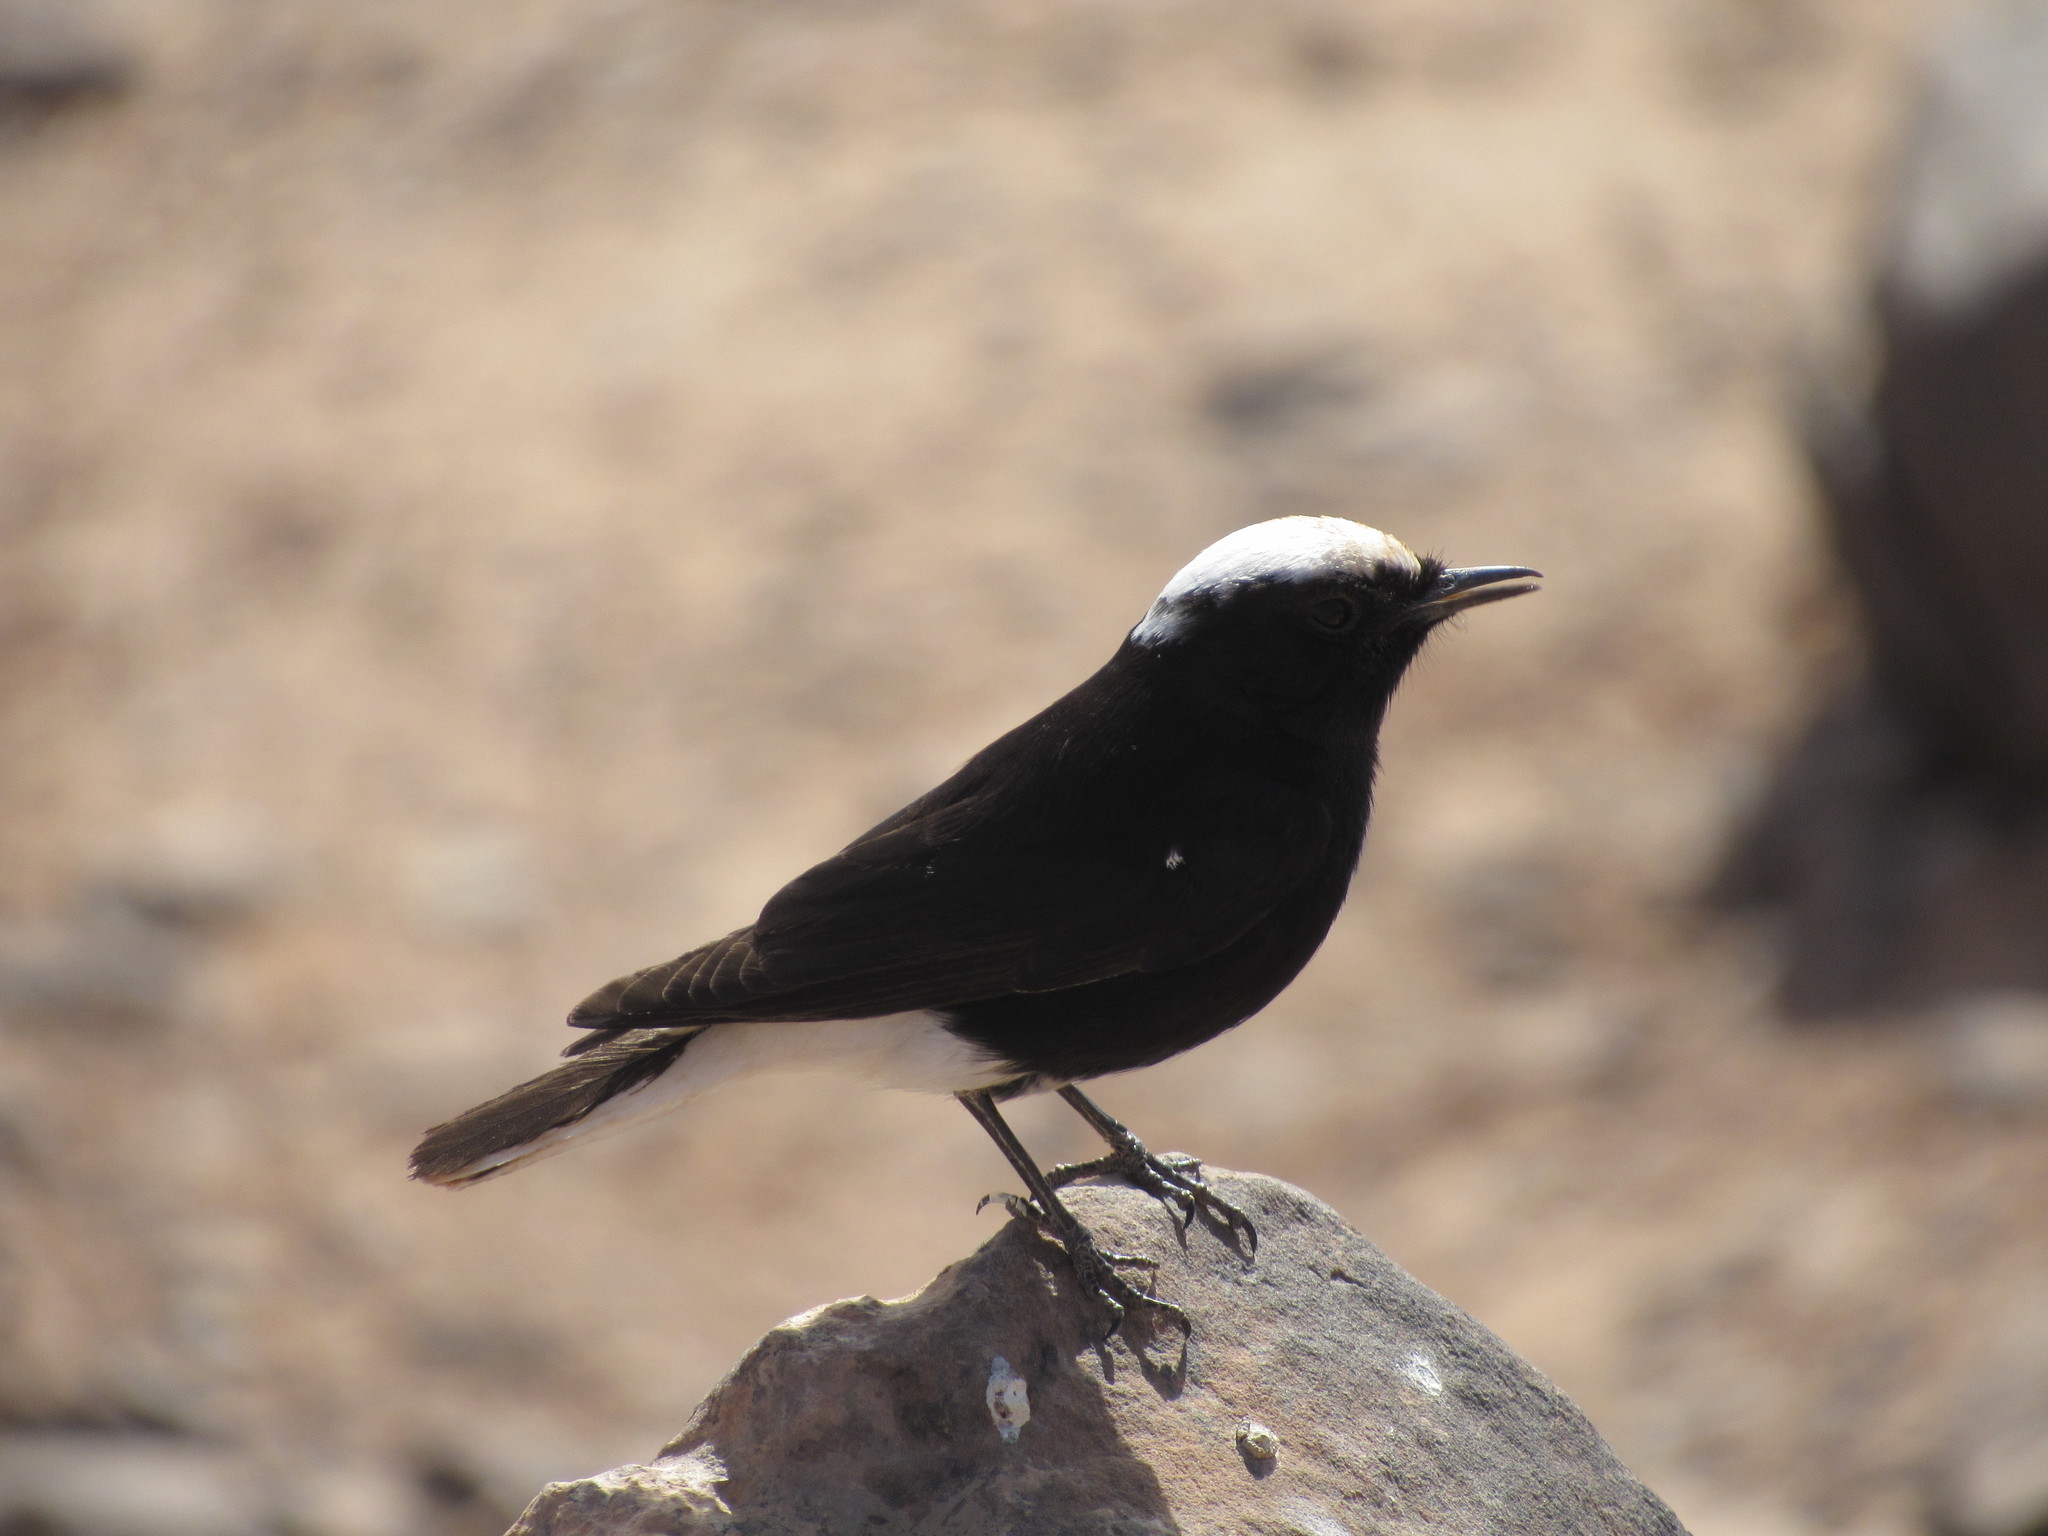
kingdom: Animalia
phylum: Chordata
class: Aves
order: Passeriformes
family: Muscicapidae
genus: Oenanthe
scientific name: Oenanthe leucopyga
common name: White-crowned wheatear
